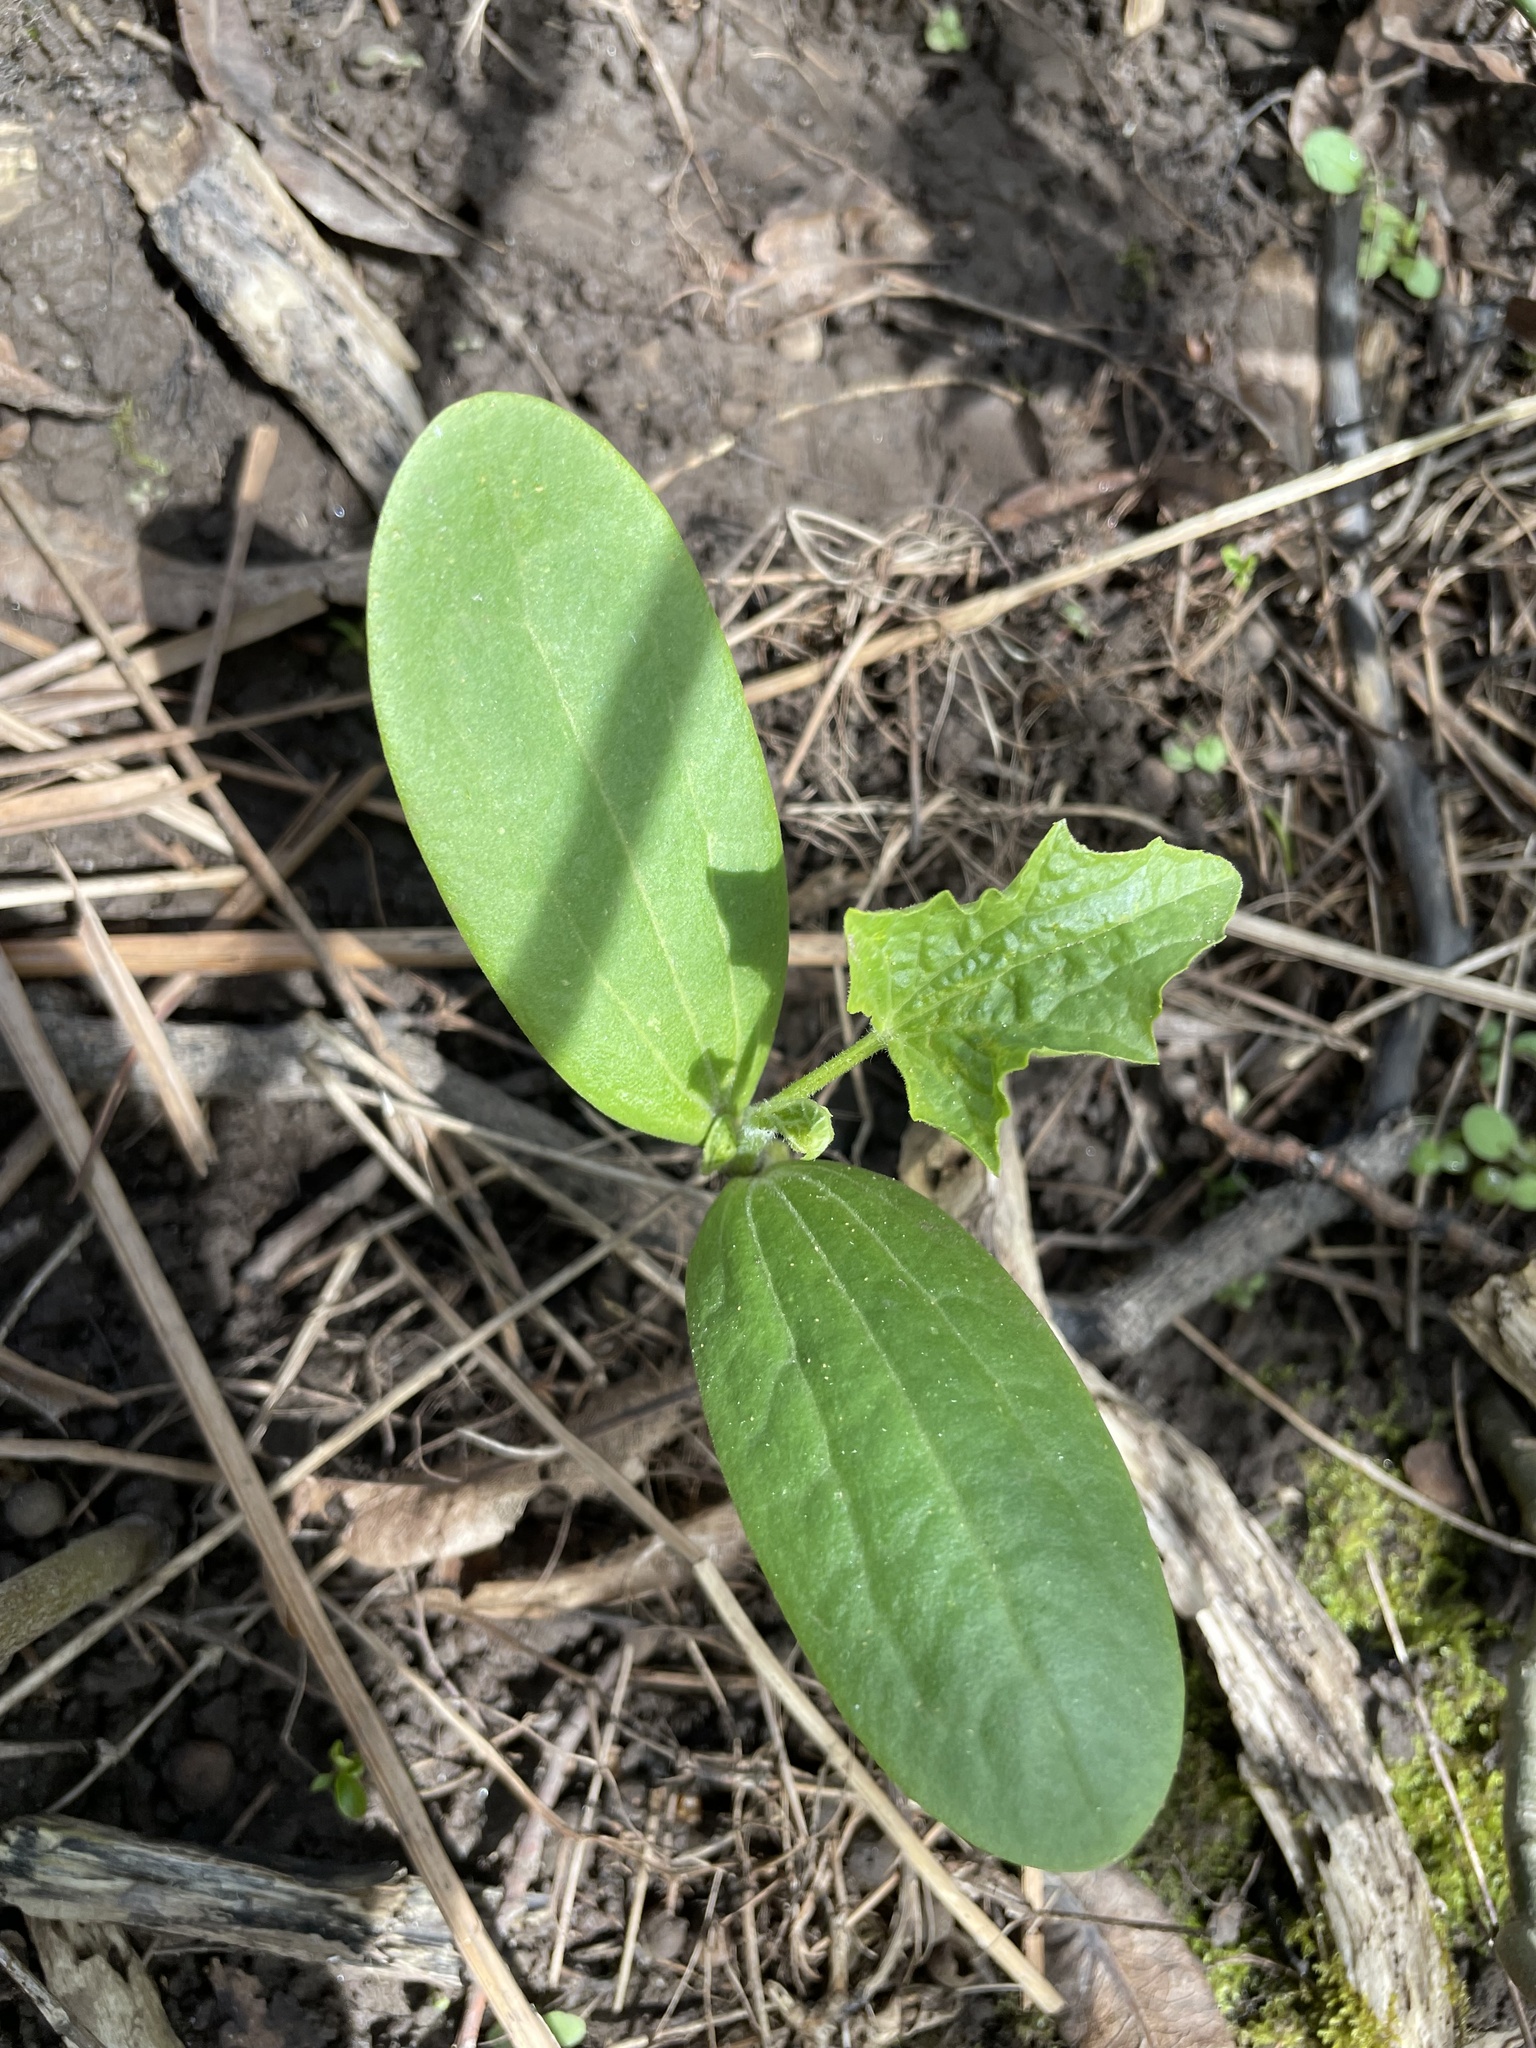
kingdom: Plantae
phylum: Tracheophyta
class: Magnoliopsida
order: Cucurbitales
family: Cucurbitaceae
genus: Echinocystis
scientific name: Echinocystis lobata
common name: Wild cucumber
